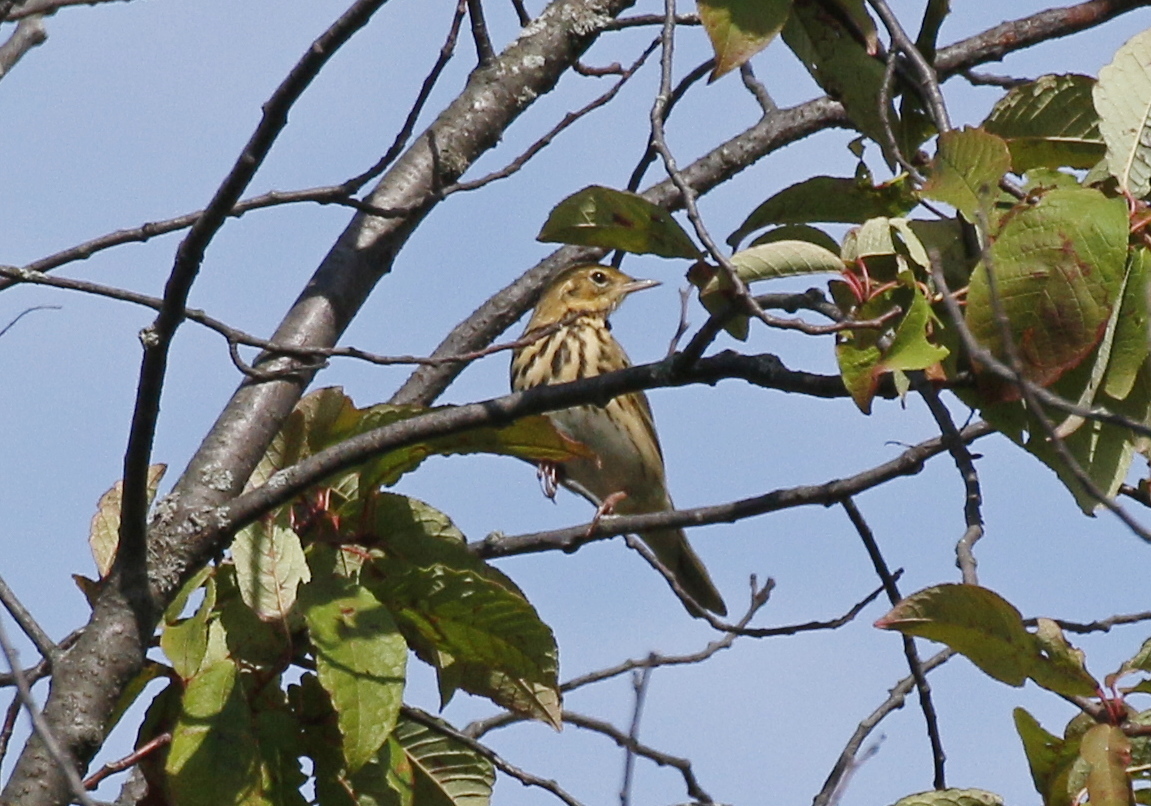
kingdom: Animalia
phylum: Chordata
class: Aves
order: Passeriformes
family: Motacillidae
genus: Anthus
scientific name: Anthus trivialis
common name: Tree pipit
